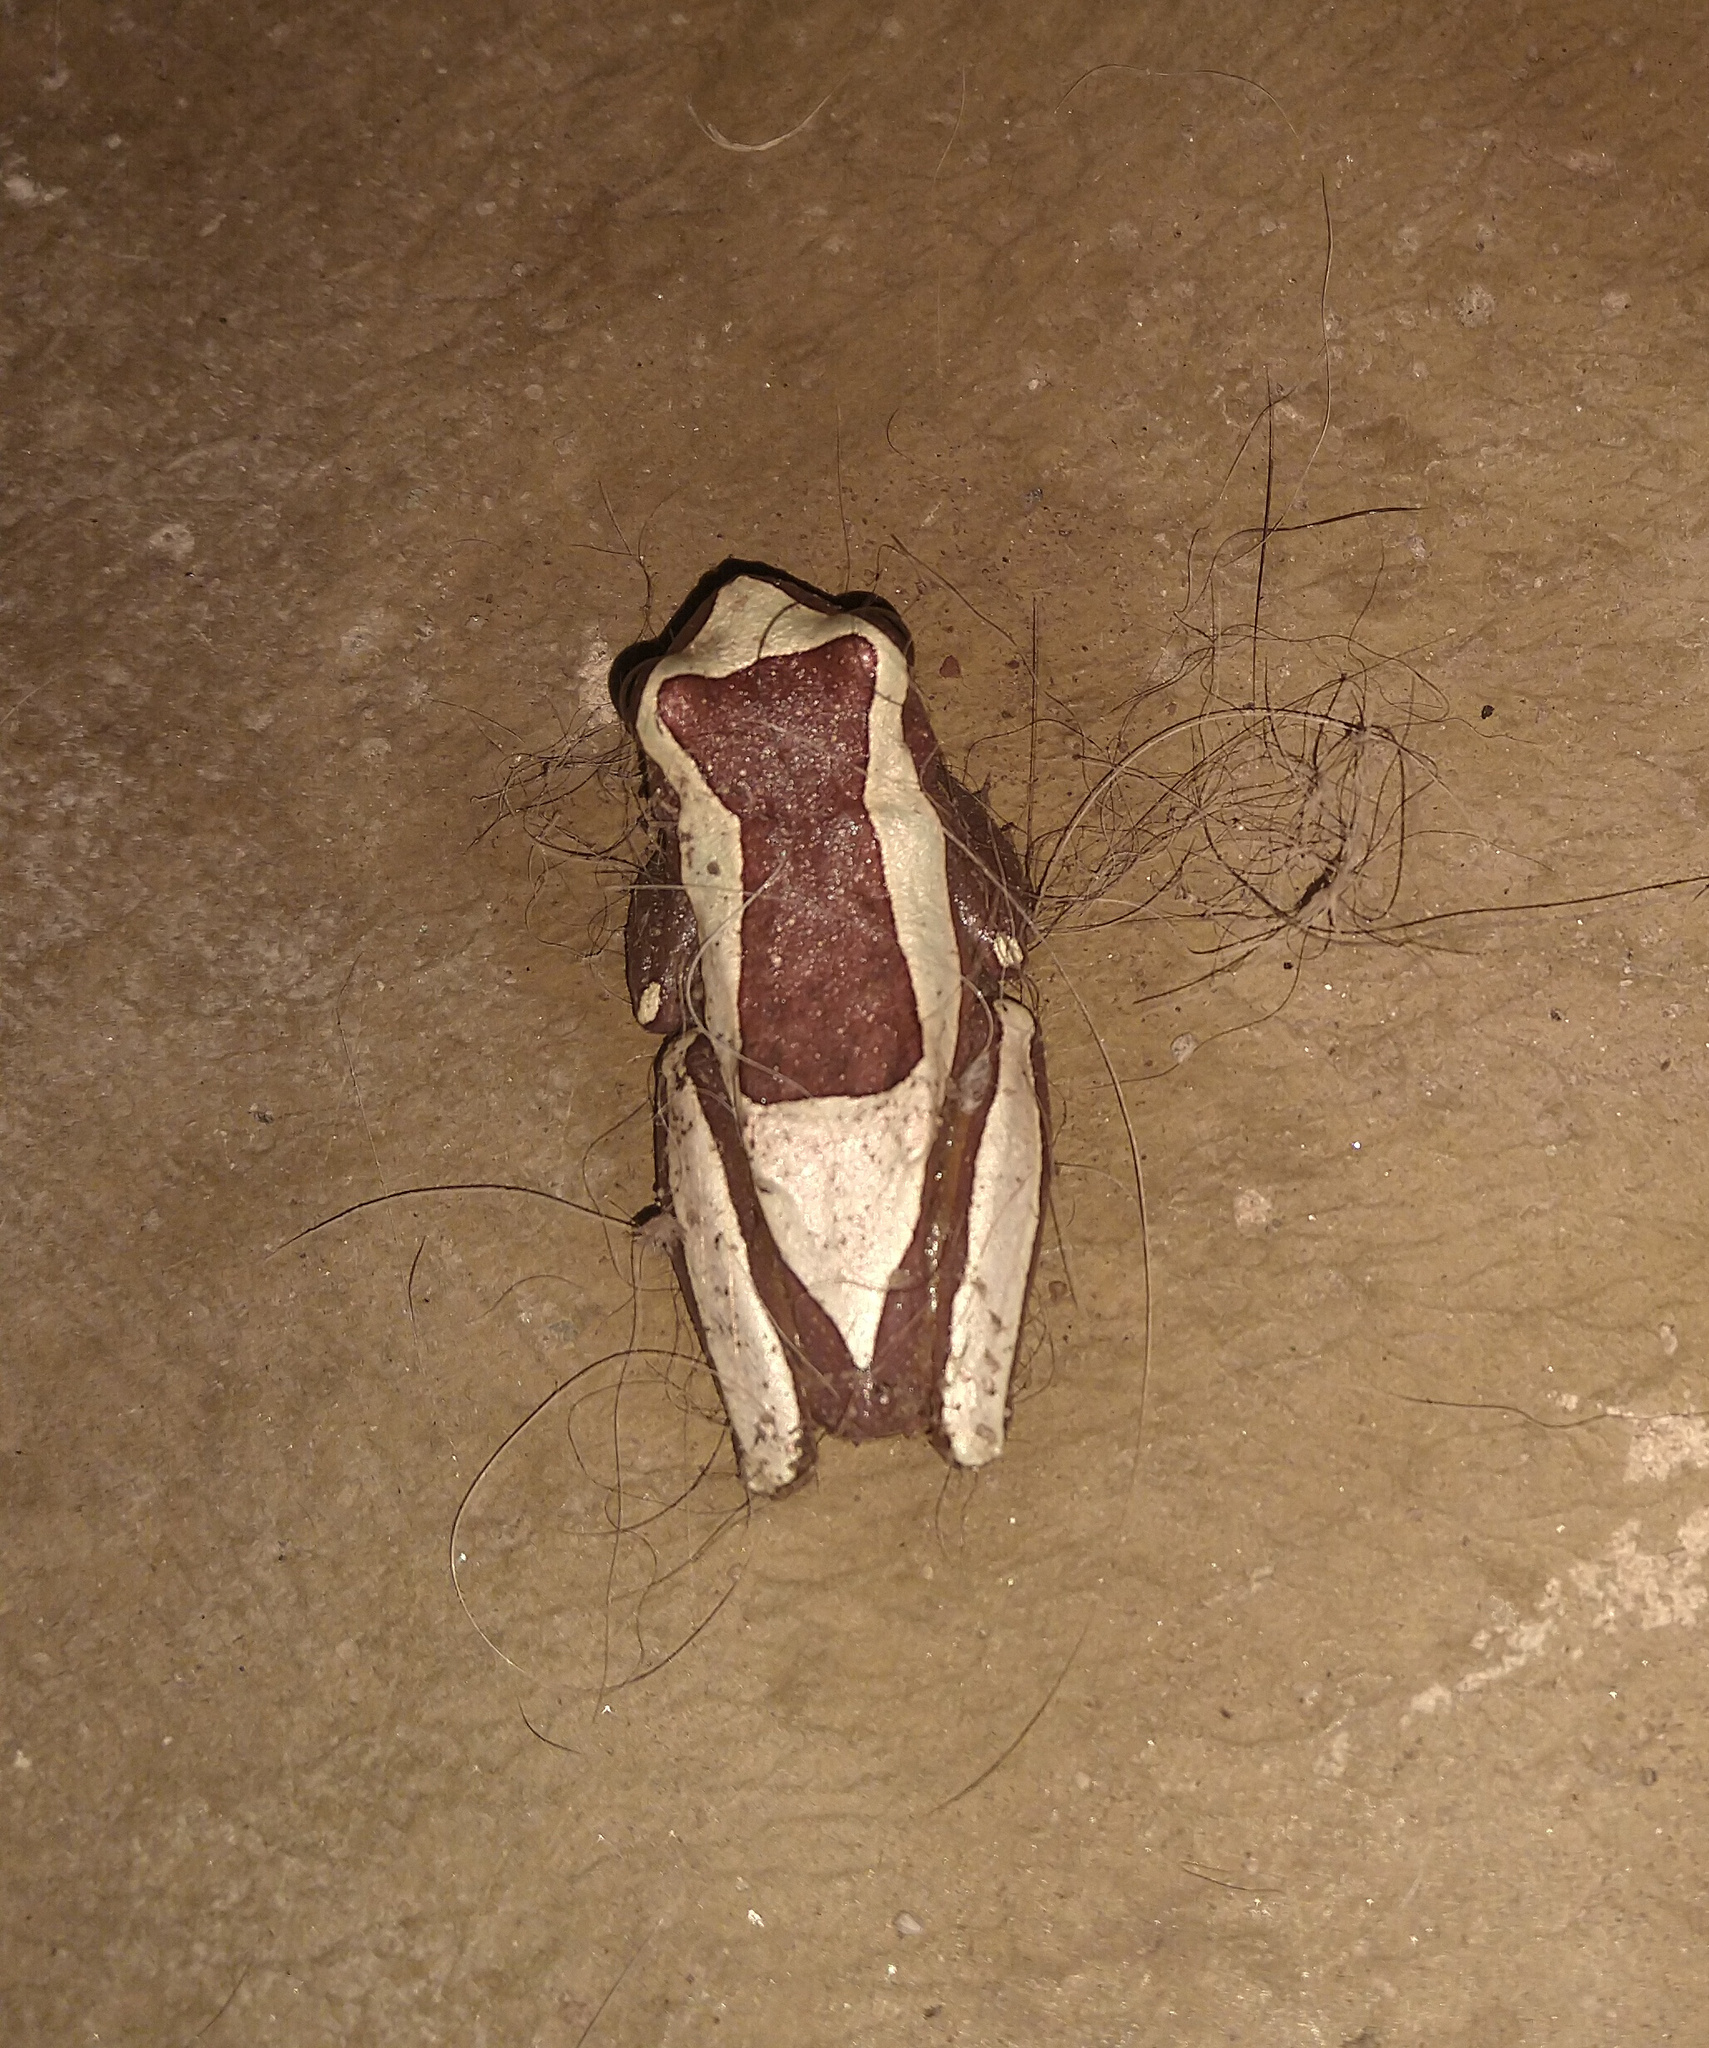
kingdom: Animalia
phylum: Chordata
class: Amphibia
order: Anura
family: Hylidae
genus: Dendropsophus
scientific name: Dendropsophus elegans
